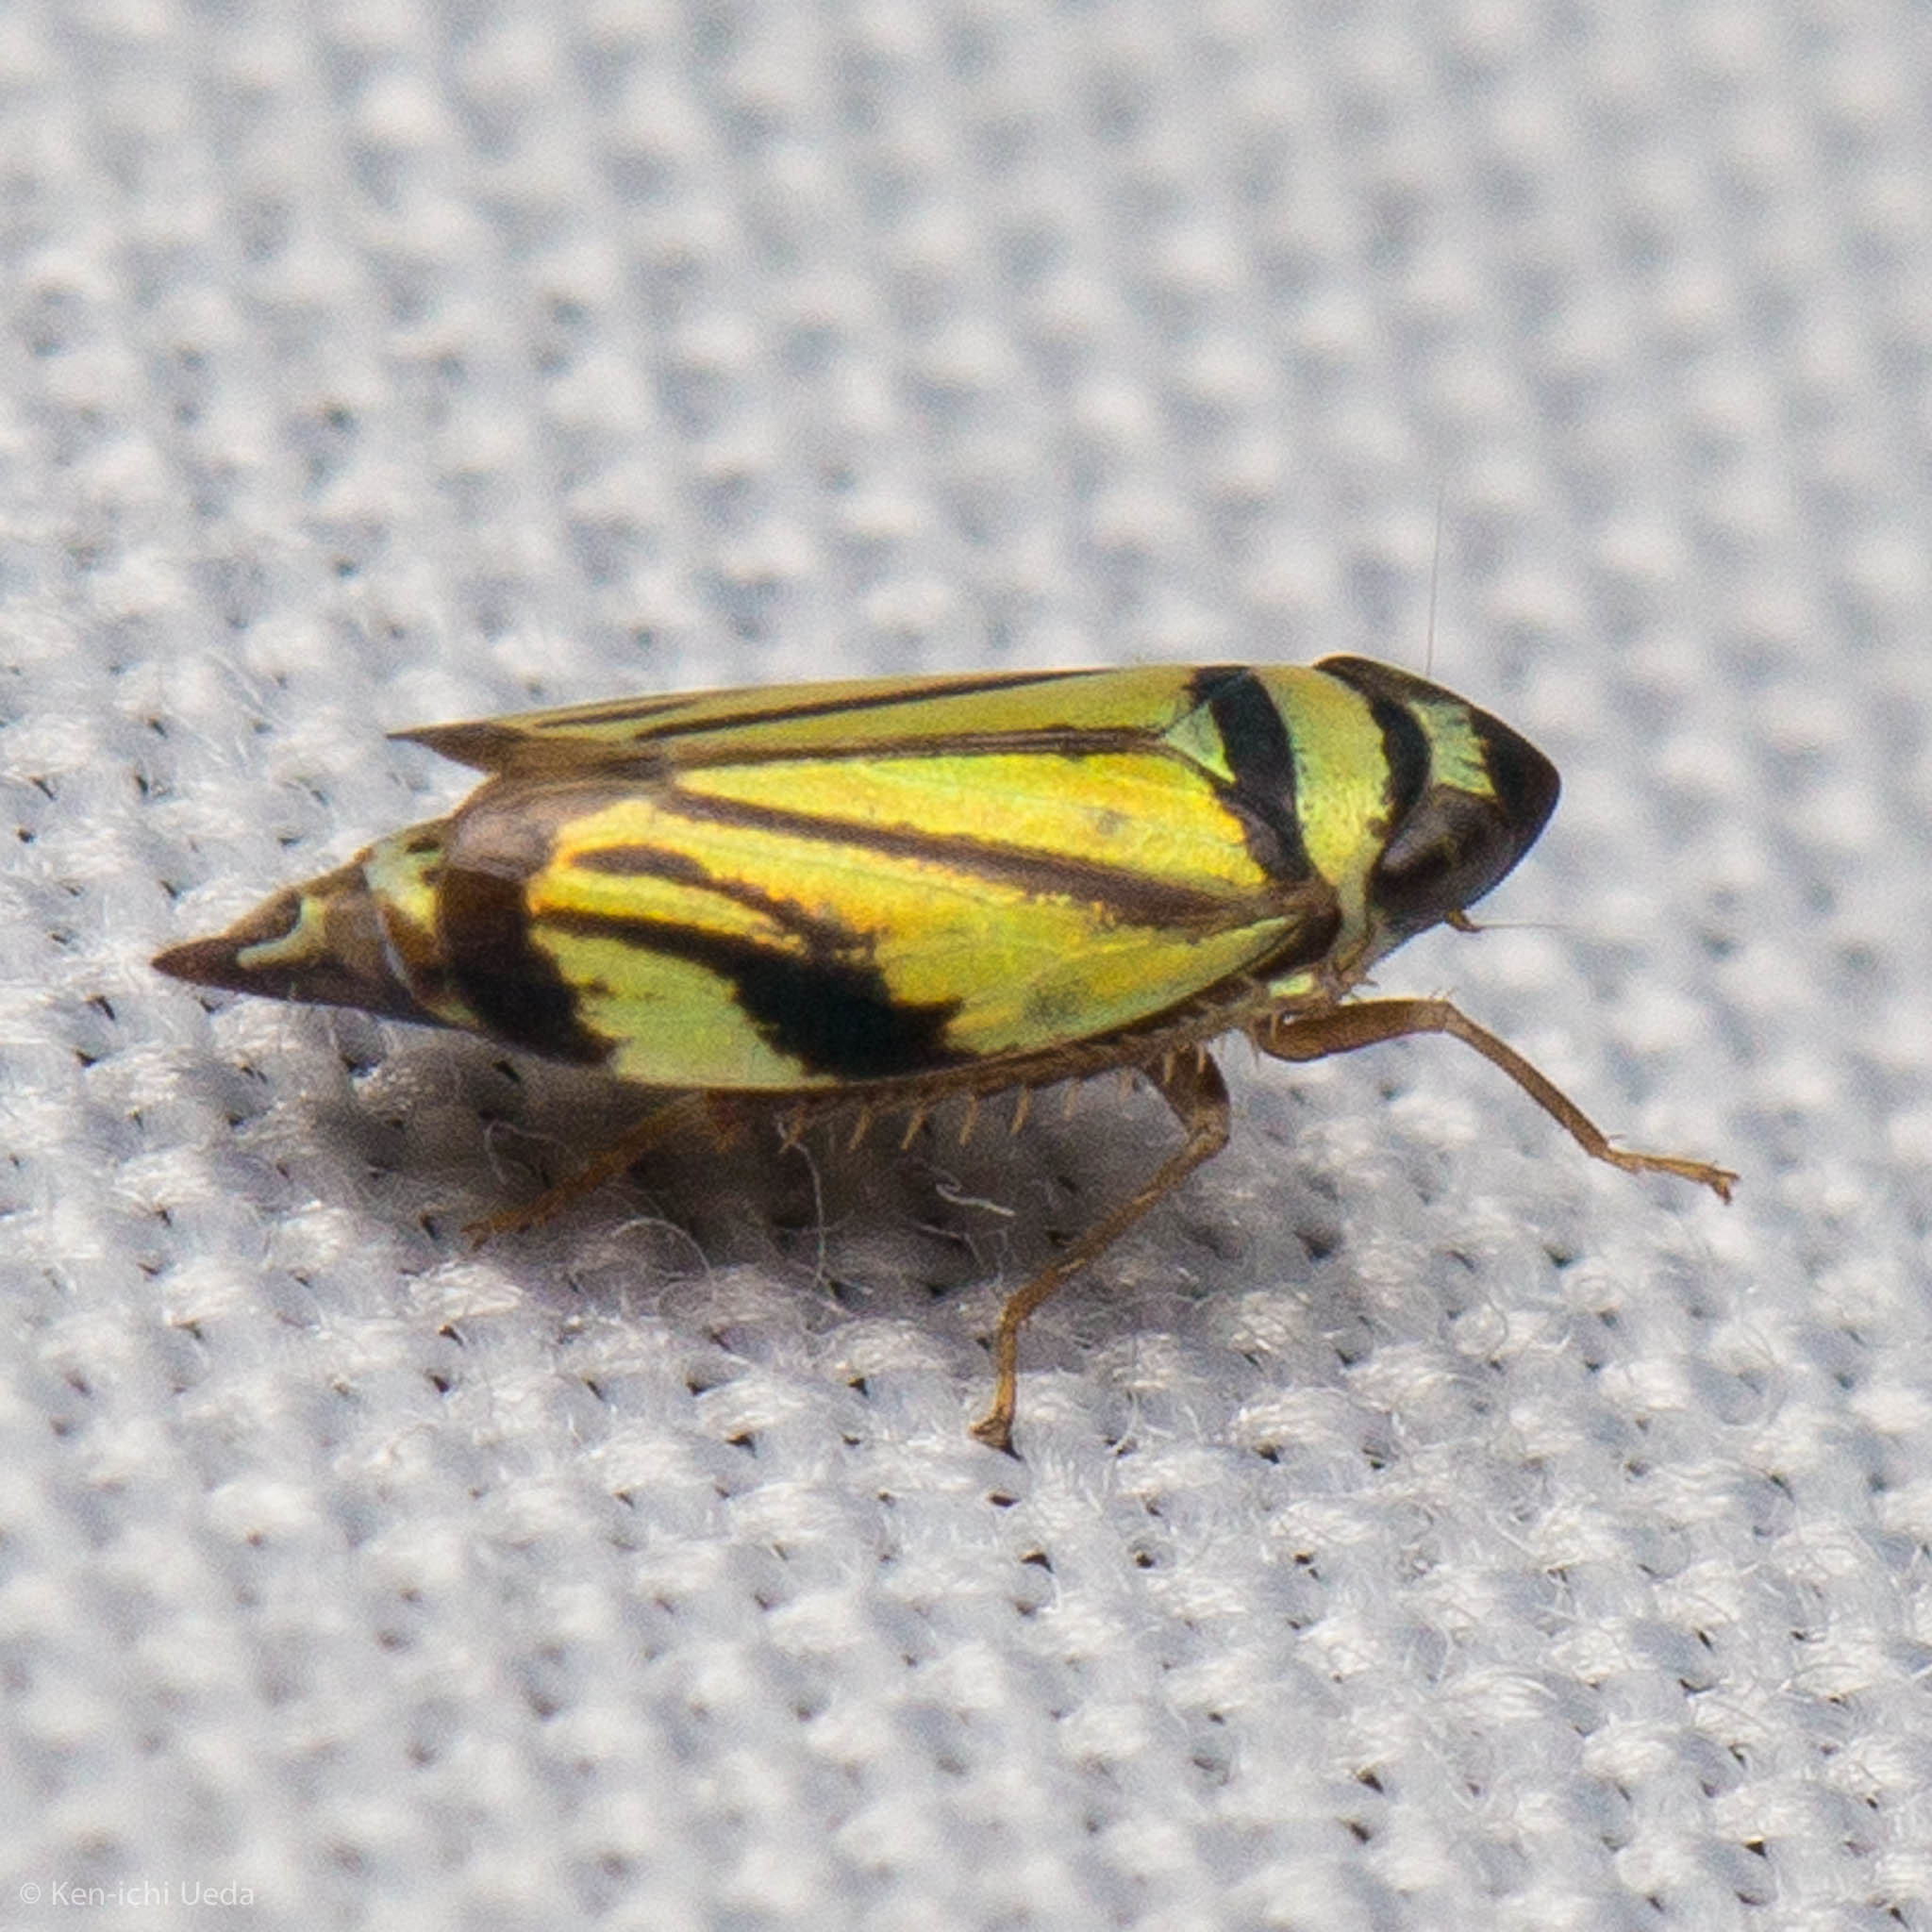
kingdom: Animalia
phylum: Arthropoda
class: Insecta
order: Hemiptera
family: Cicadellidae
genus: Stirellus
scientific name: Stirellus bicolor
